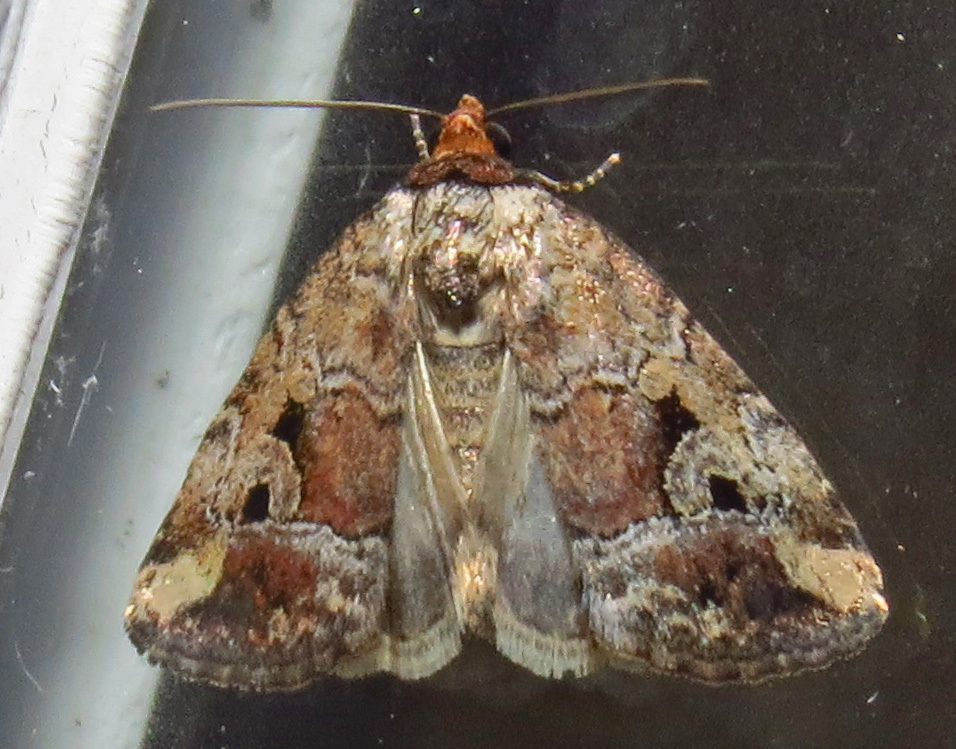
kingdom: Animalia
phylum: Arthropoda
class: Insecta
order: Lepidoptera
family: Noctuidae
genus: Elaphria
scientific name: Elaphria alapallida
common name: Pale-winged midget
